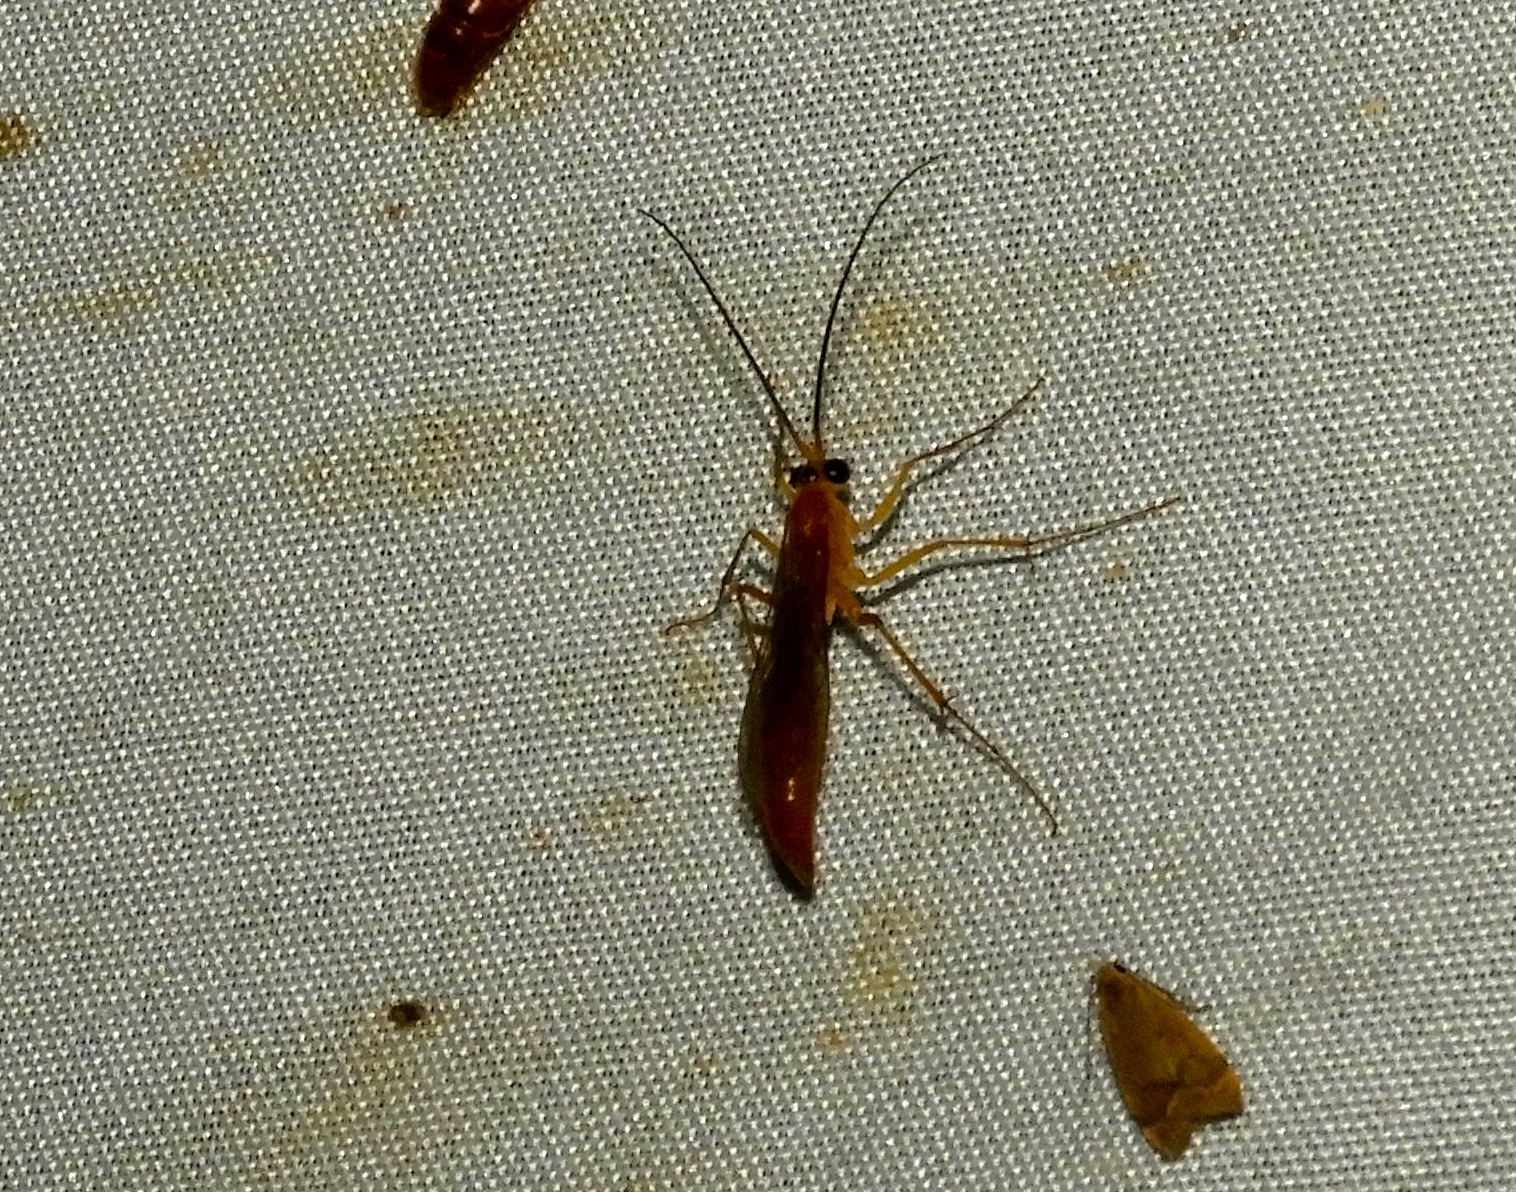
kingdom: Animalia
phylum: Arthropoda
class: Insecta
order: Hymenoptera
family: Rhopalosomatidae
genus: Rhopalosoma
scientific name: Rhopalosoma nearcticum
